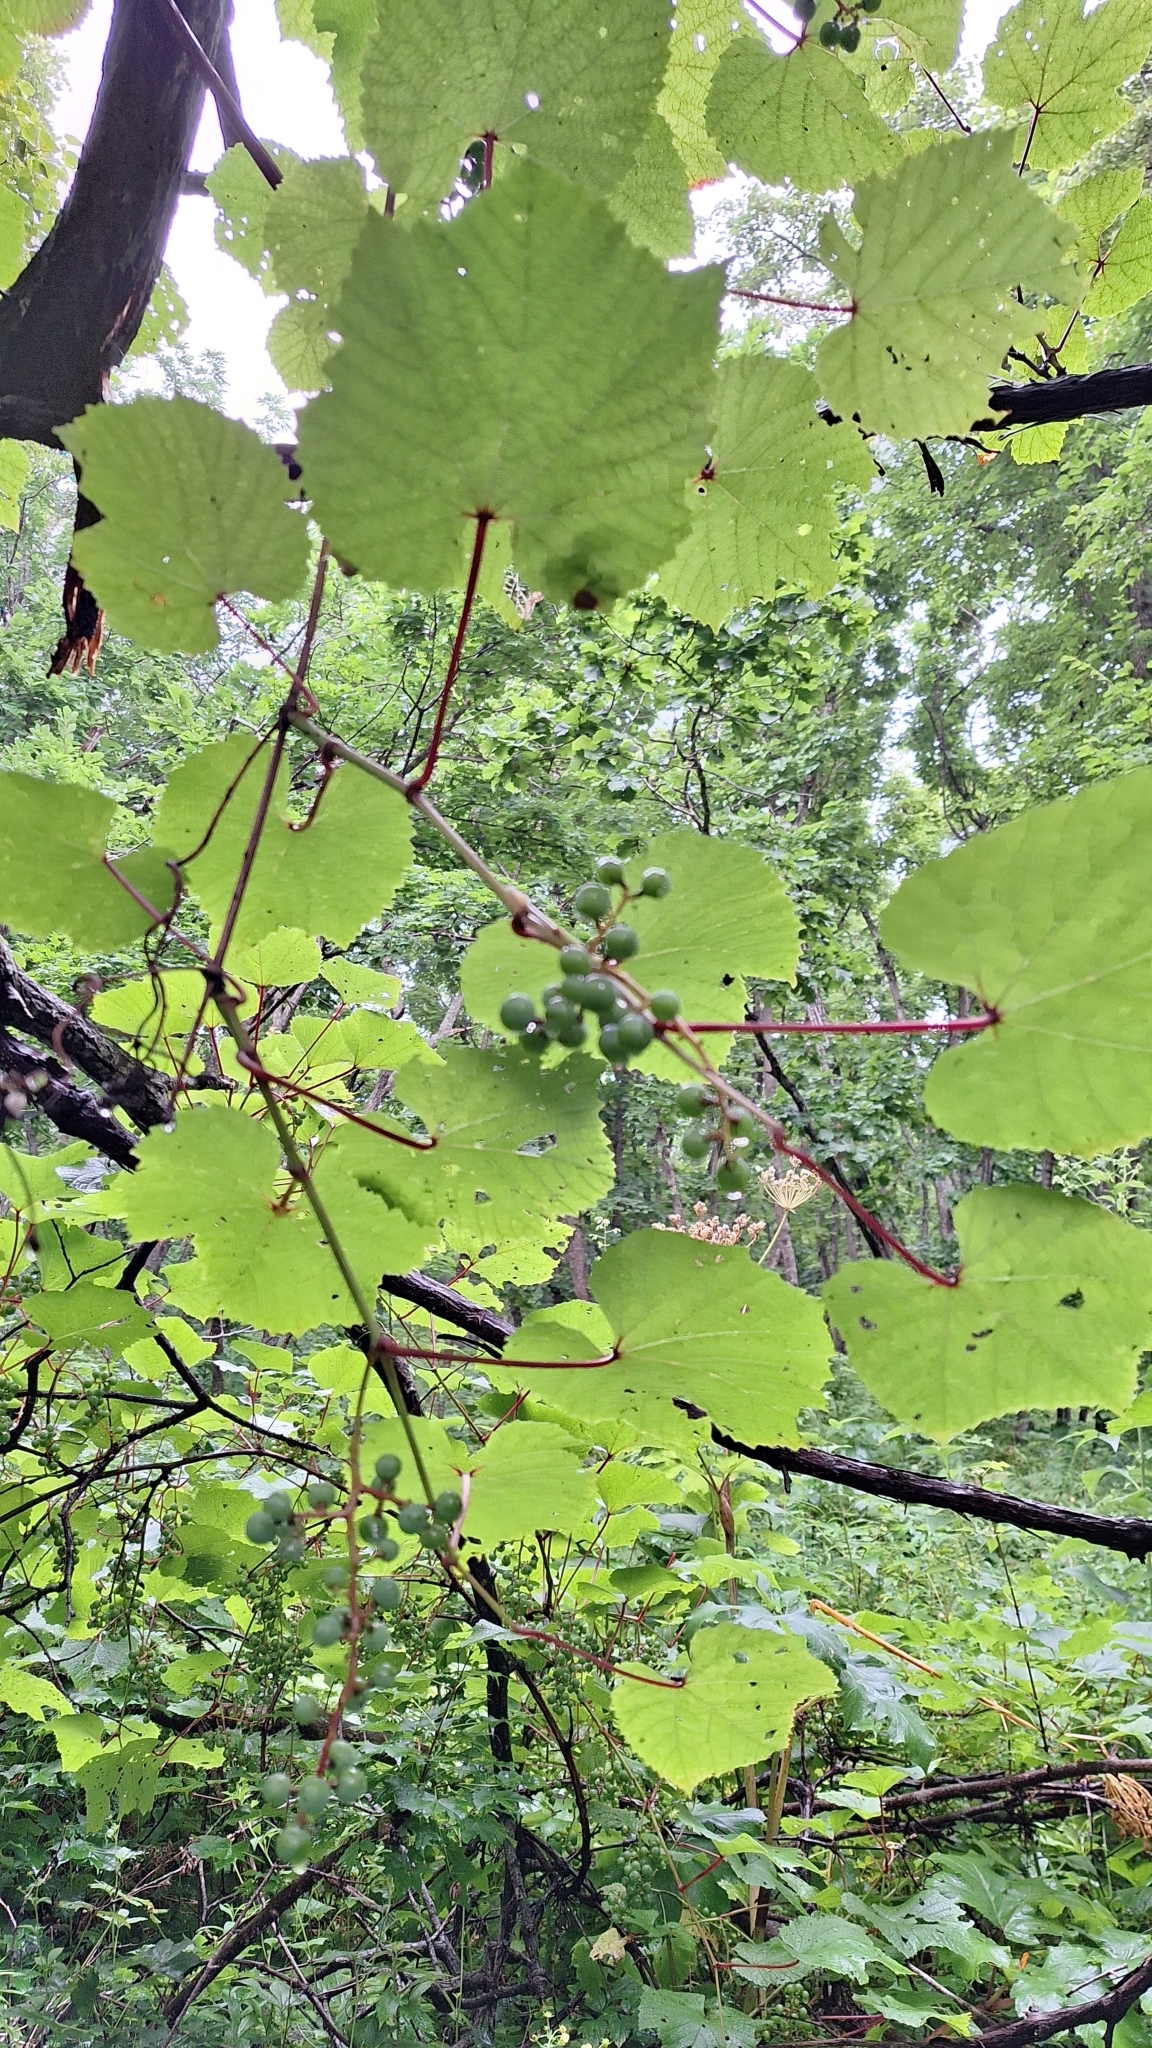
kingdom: Plantae
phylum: Tracheophyta
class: Magnoliopsida
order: Vitales
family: Vitaceae
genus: Vitis
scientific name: Vitis amurensis
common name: Amur grape
